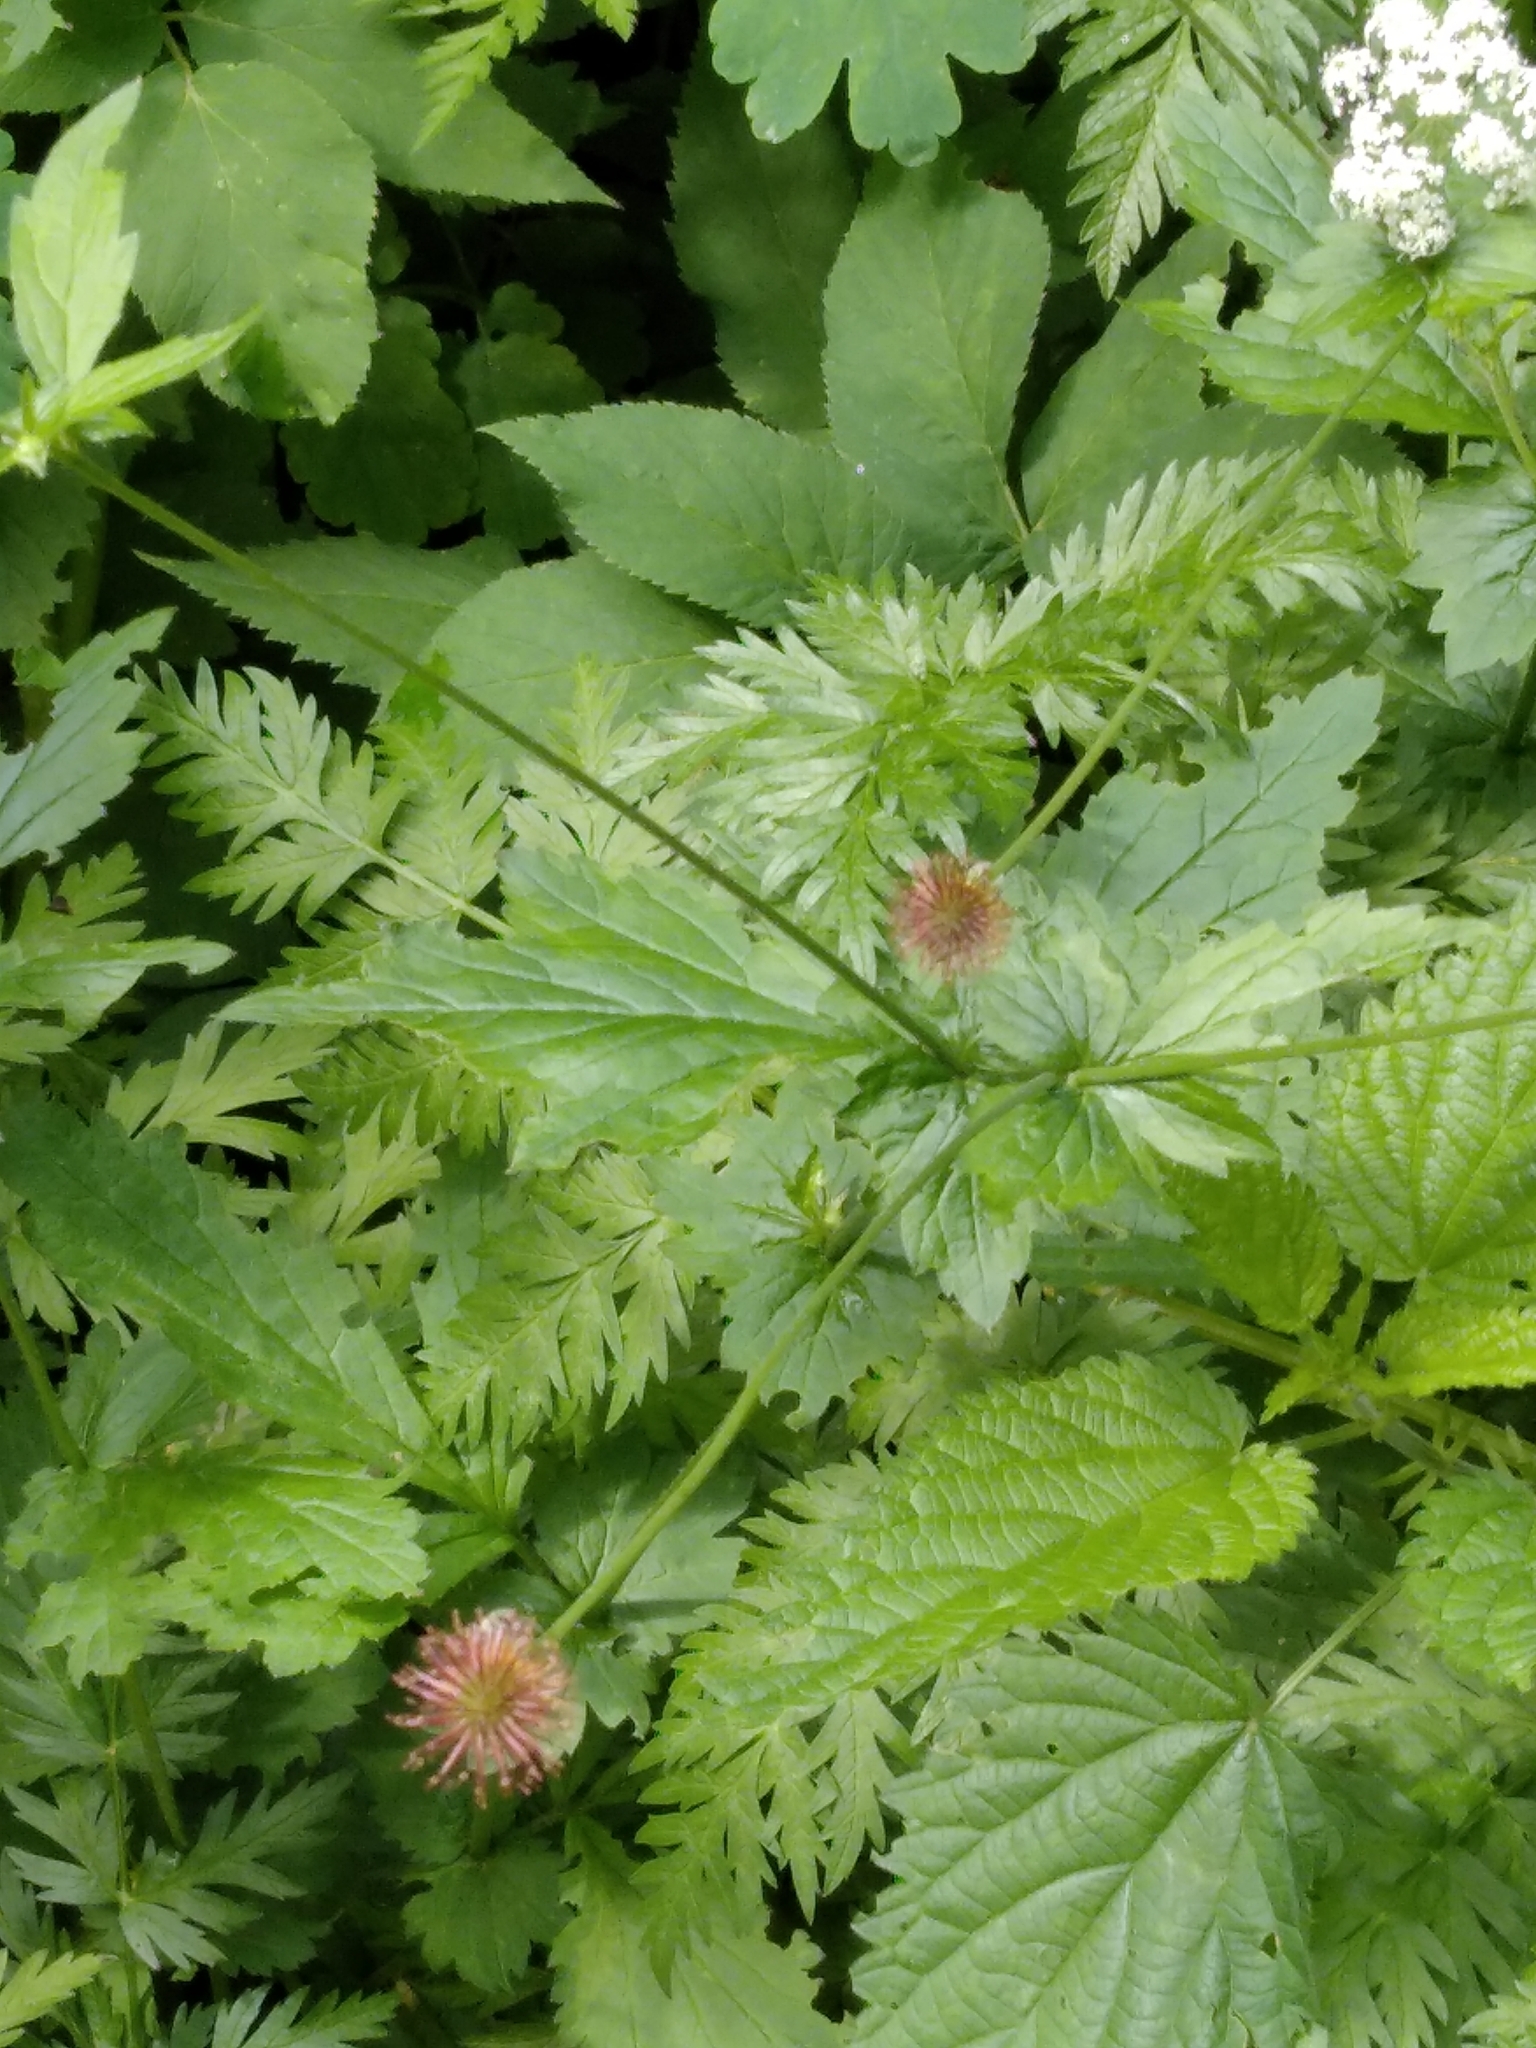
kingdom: Plantae
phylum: Tracheophyta
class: Magnoliopsida
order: Rosales
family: Rosaceae
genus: Geum
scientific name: Geum urbanum
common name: Wood avens
